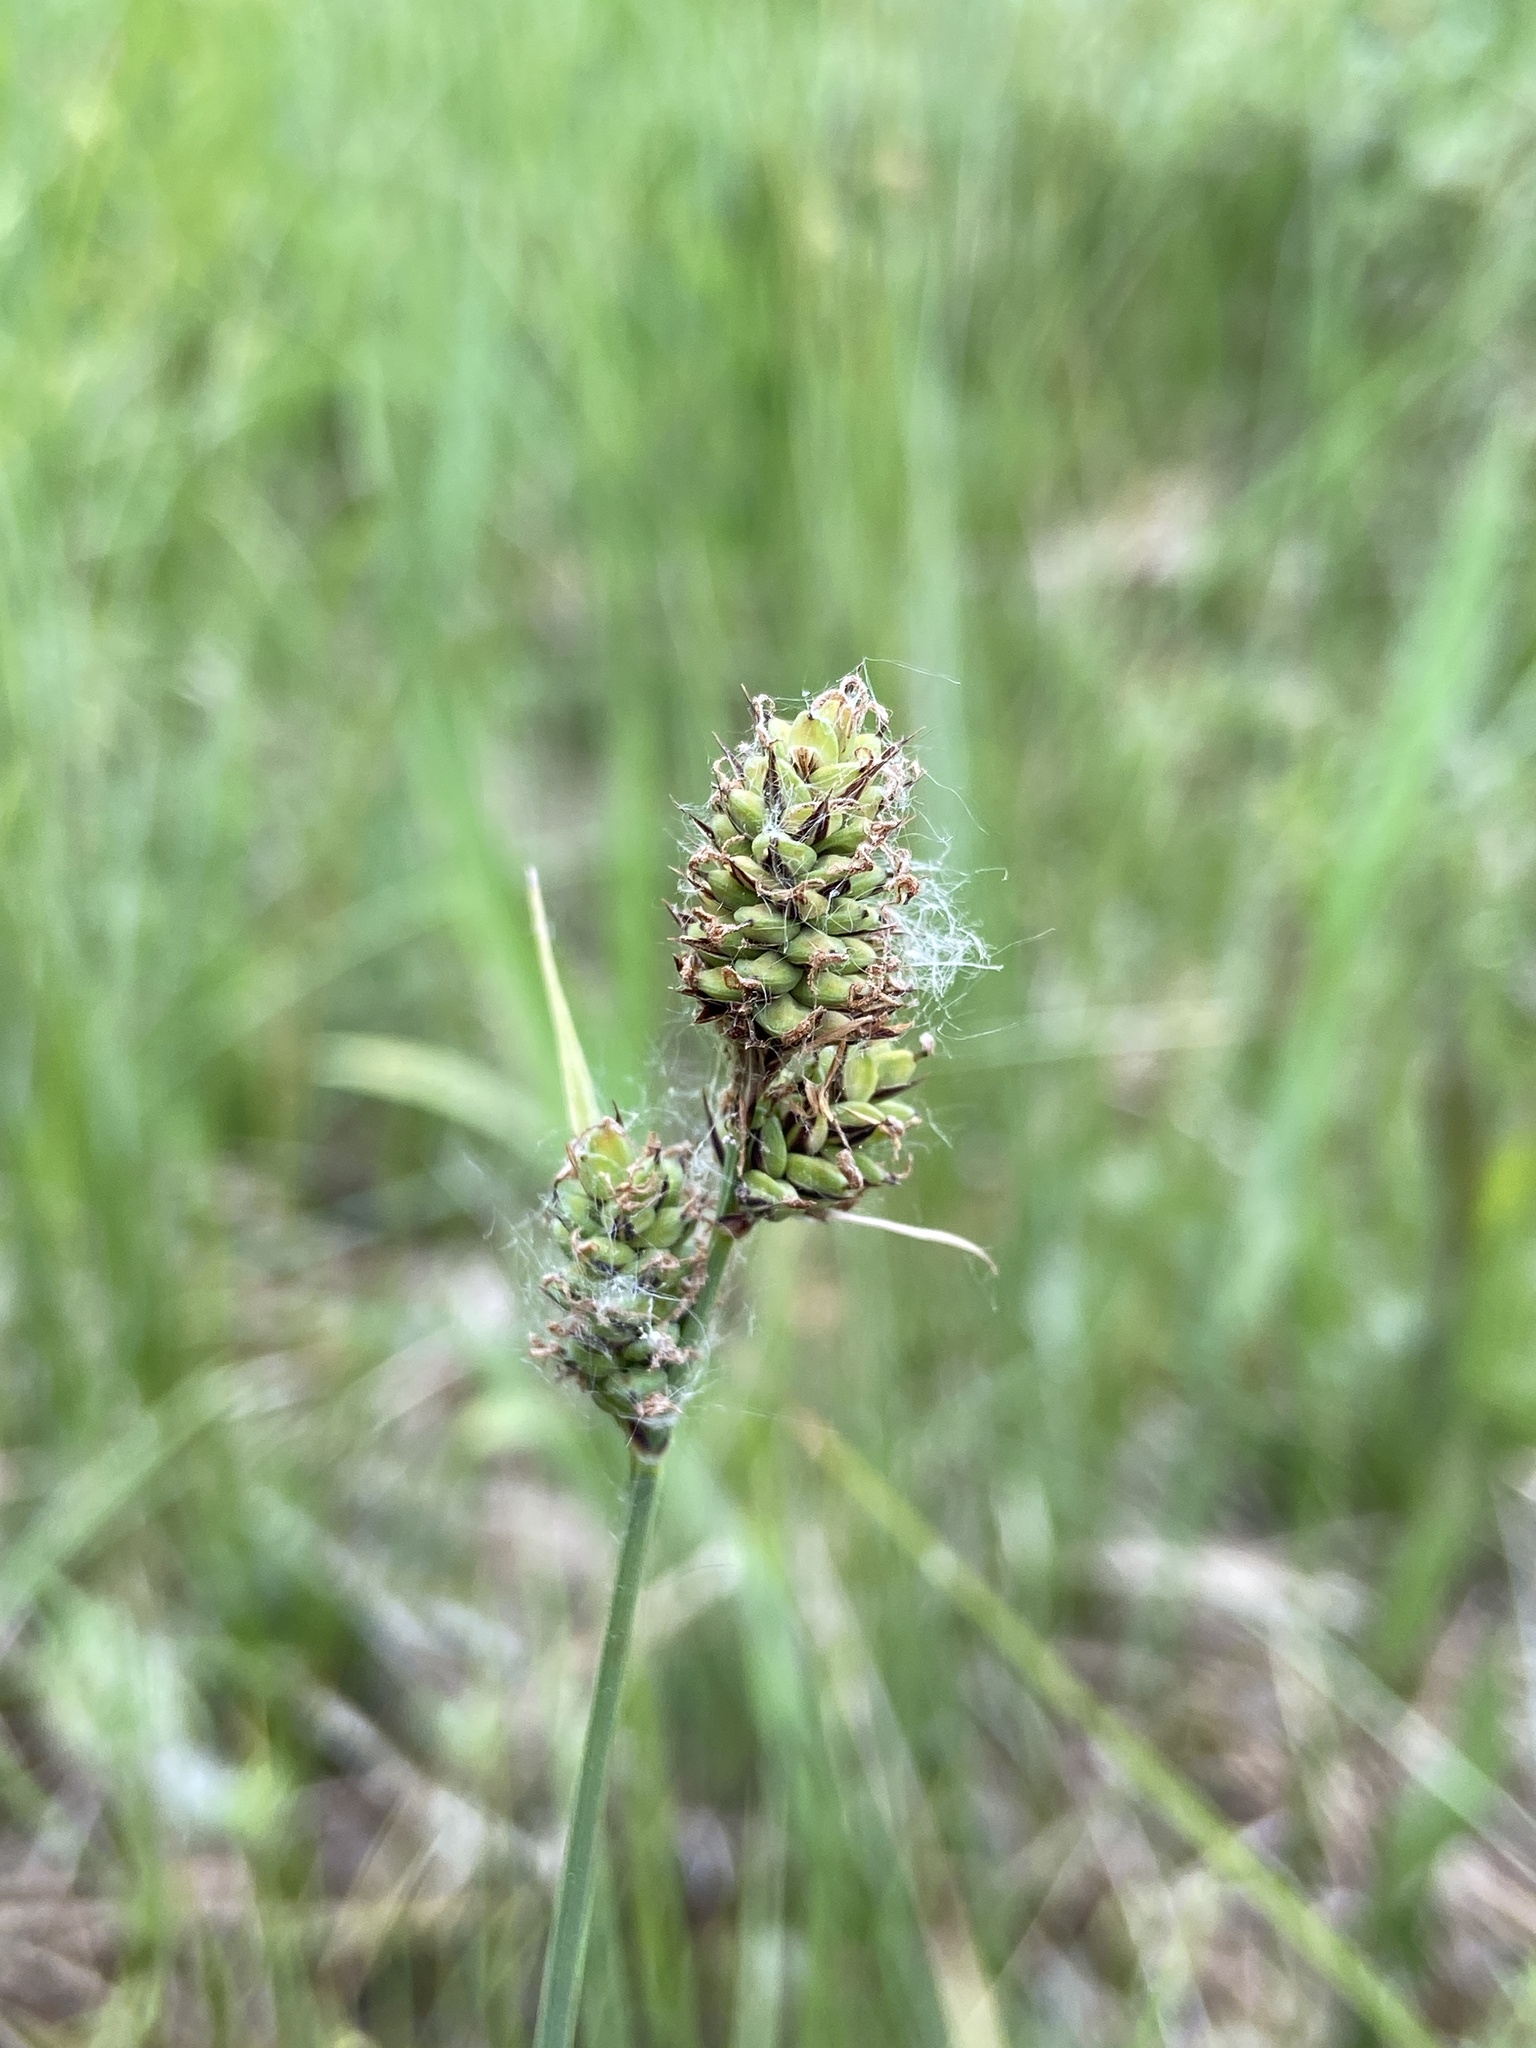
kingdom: Plantae
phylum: Tracheophyta
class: Liliopsida
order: Poales
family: Cyperaceae
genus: Carex
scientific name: Carex tetanica
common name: Rigid sedge
